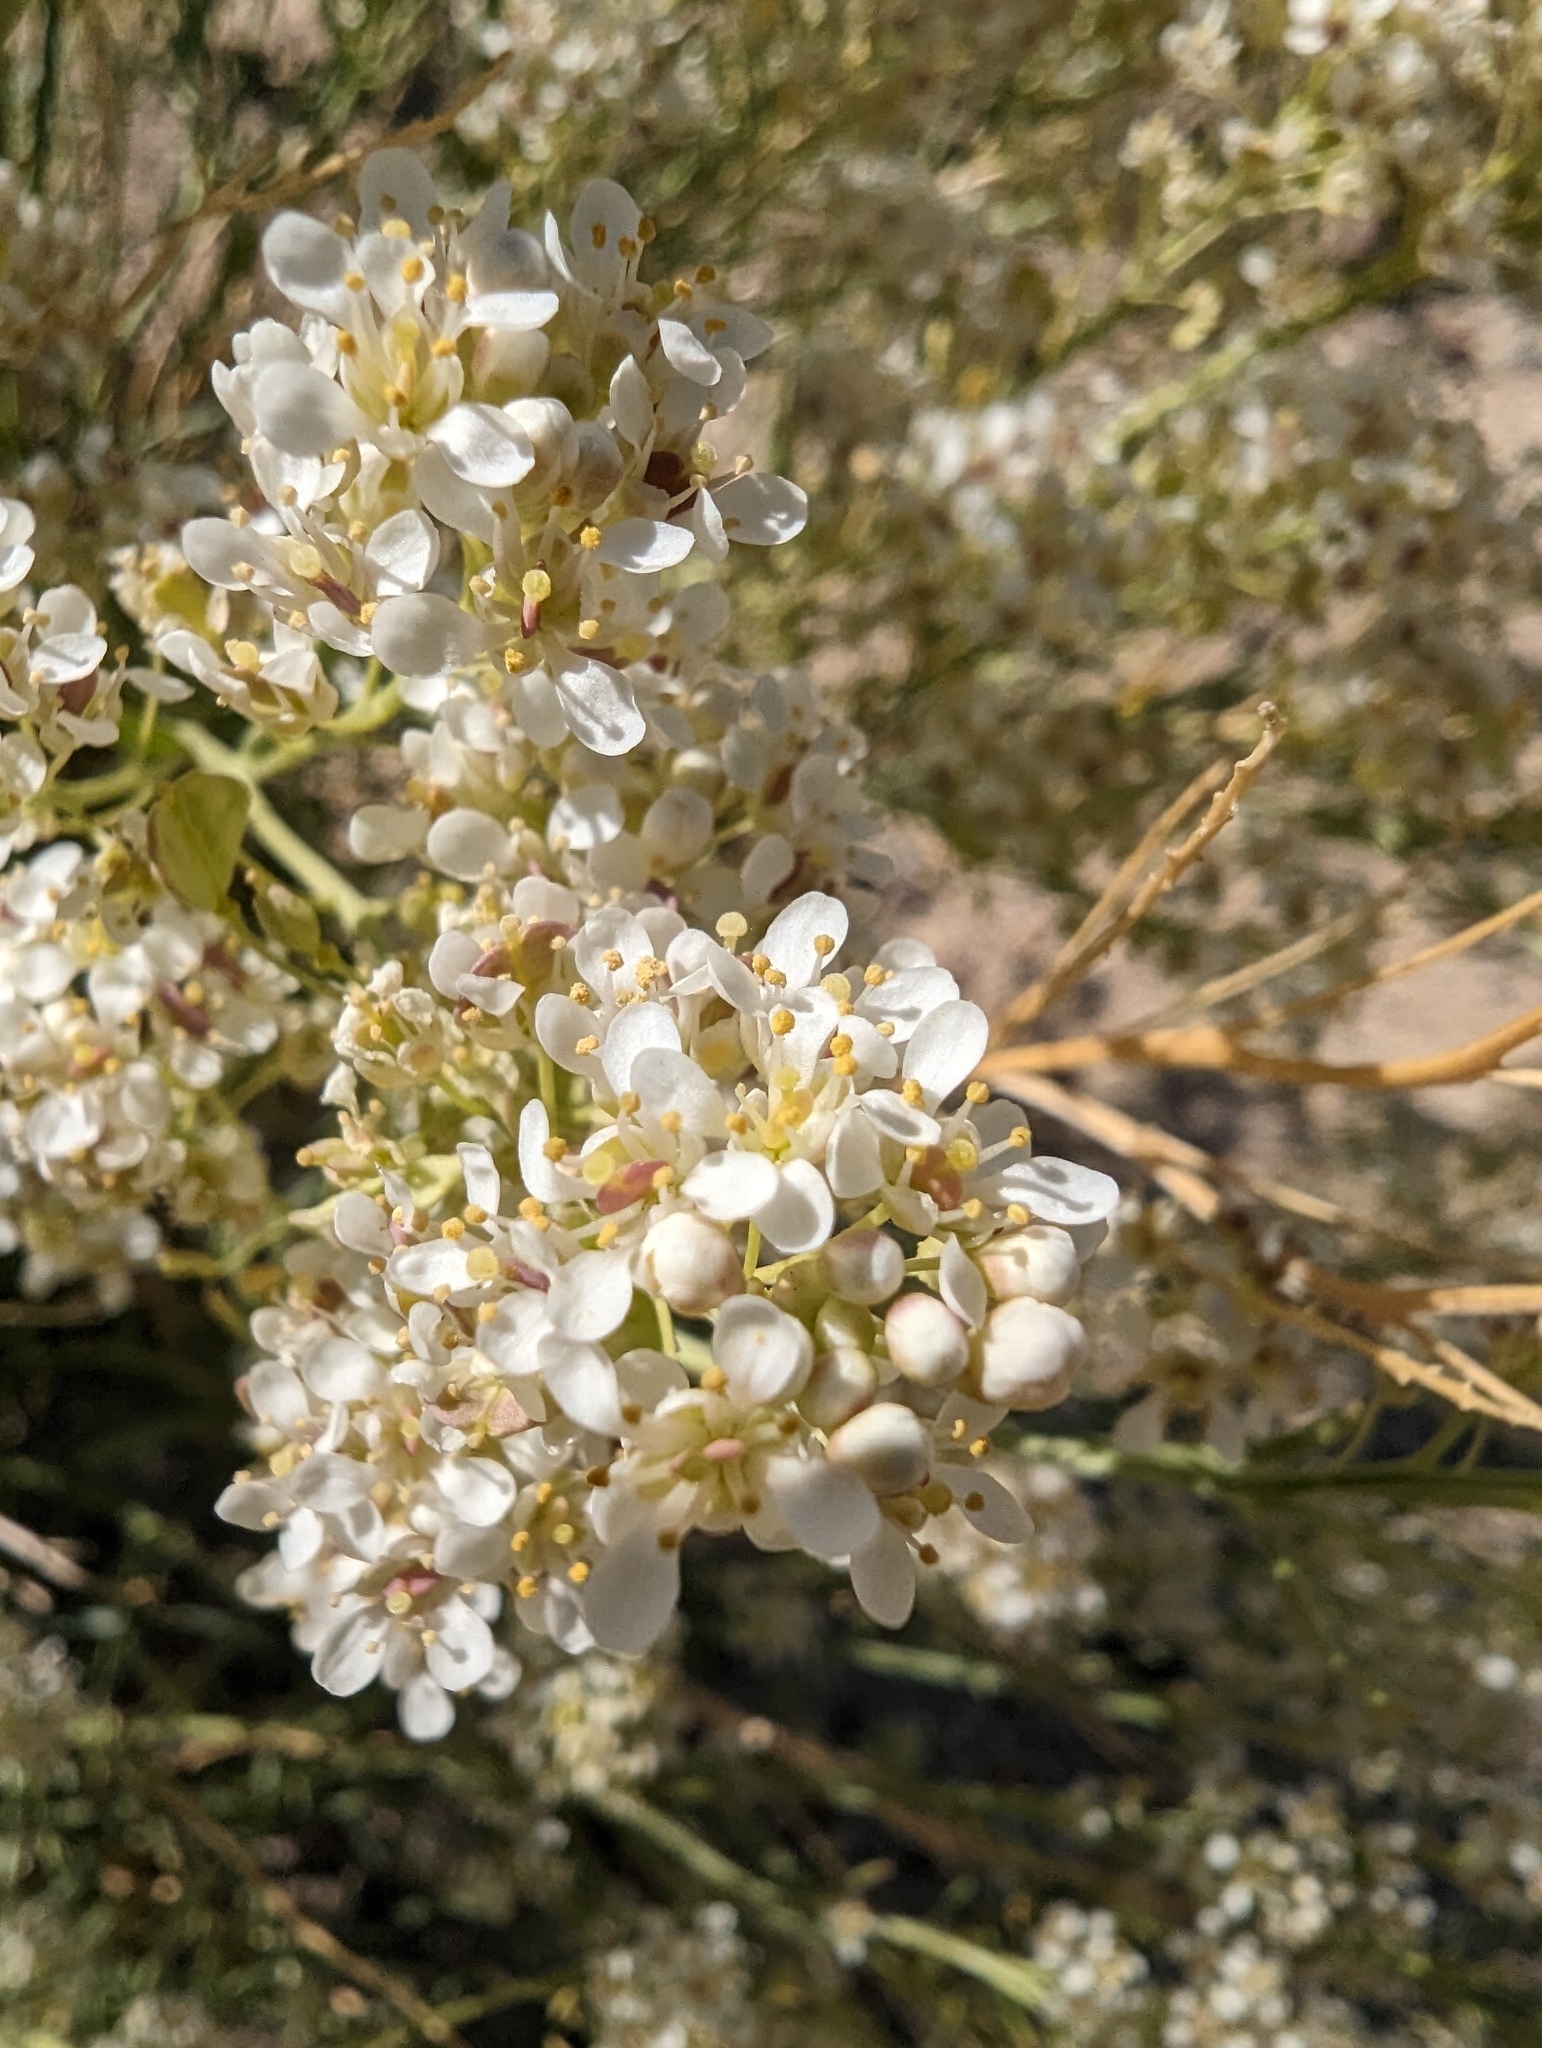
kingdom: Plantae
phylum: Tracheophyta
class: Magnoliopsida
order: Brassicales
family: Brassicaceae
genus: Lepidium
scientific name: Lepidium fremontii
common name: Fremont's pepperwort
